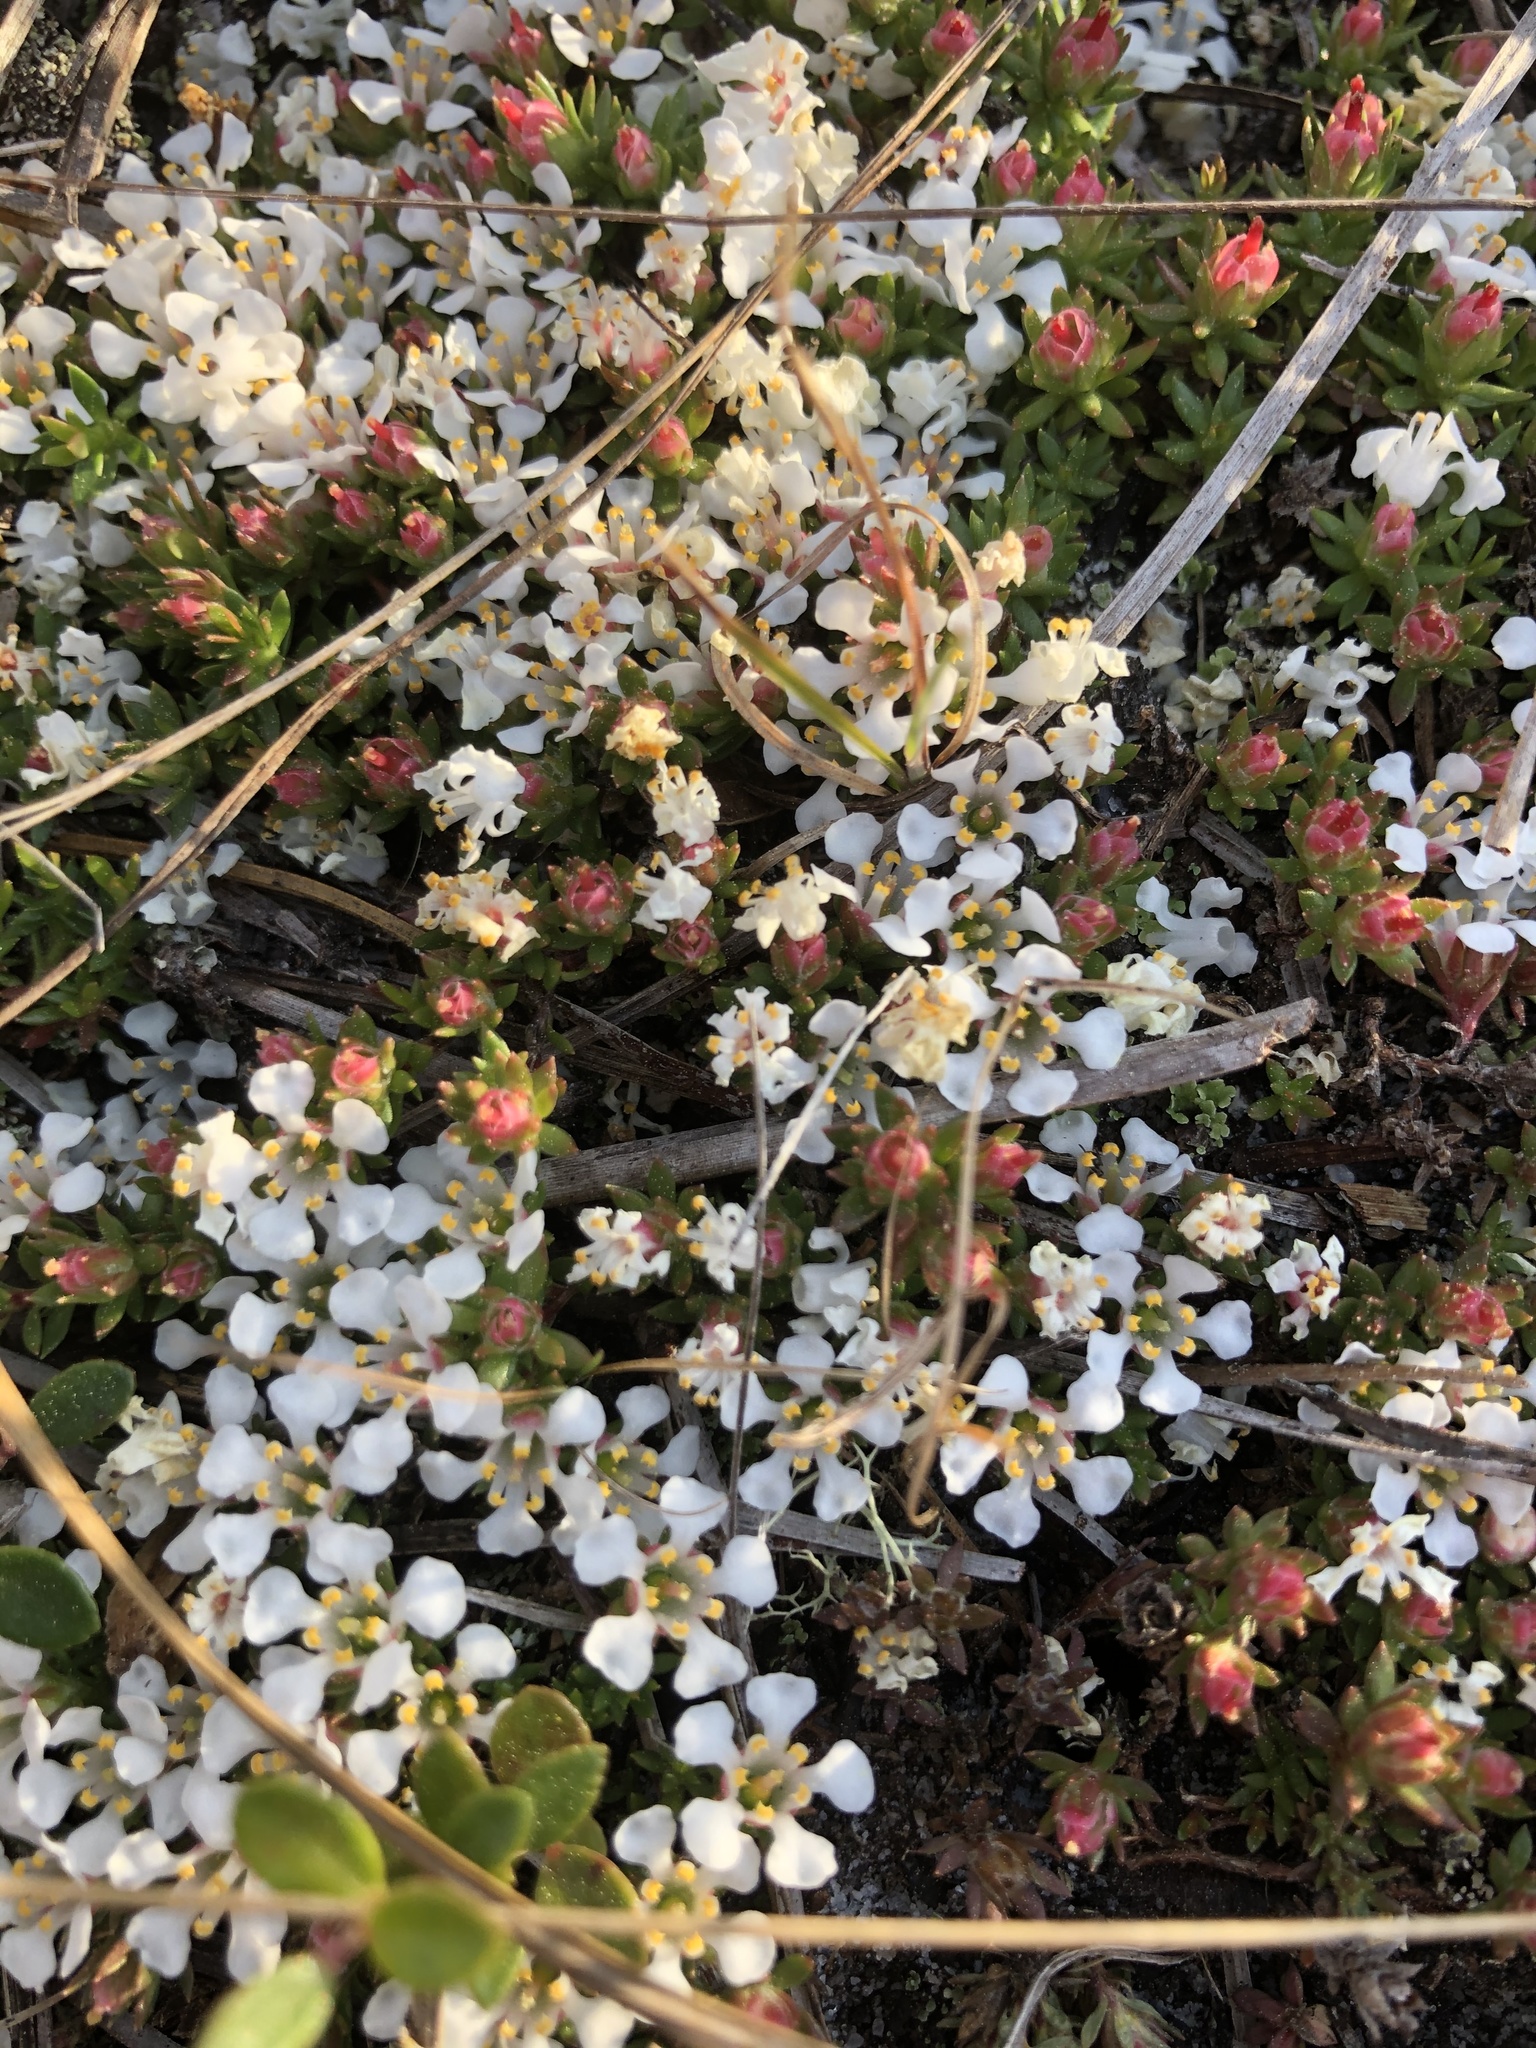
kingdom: Plantae
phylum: Tracheophyta
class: Magnoliopsida
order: Ericales
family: Diapensiaceae
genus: Pyxidanthera
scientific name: Pyxidanthera barbulata
